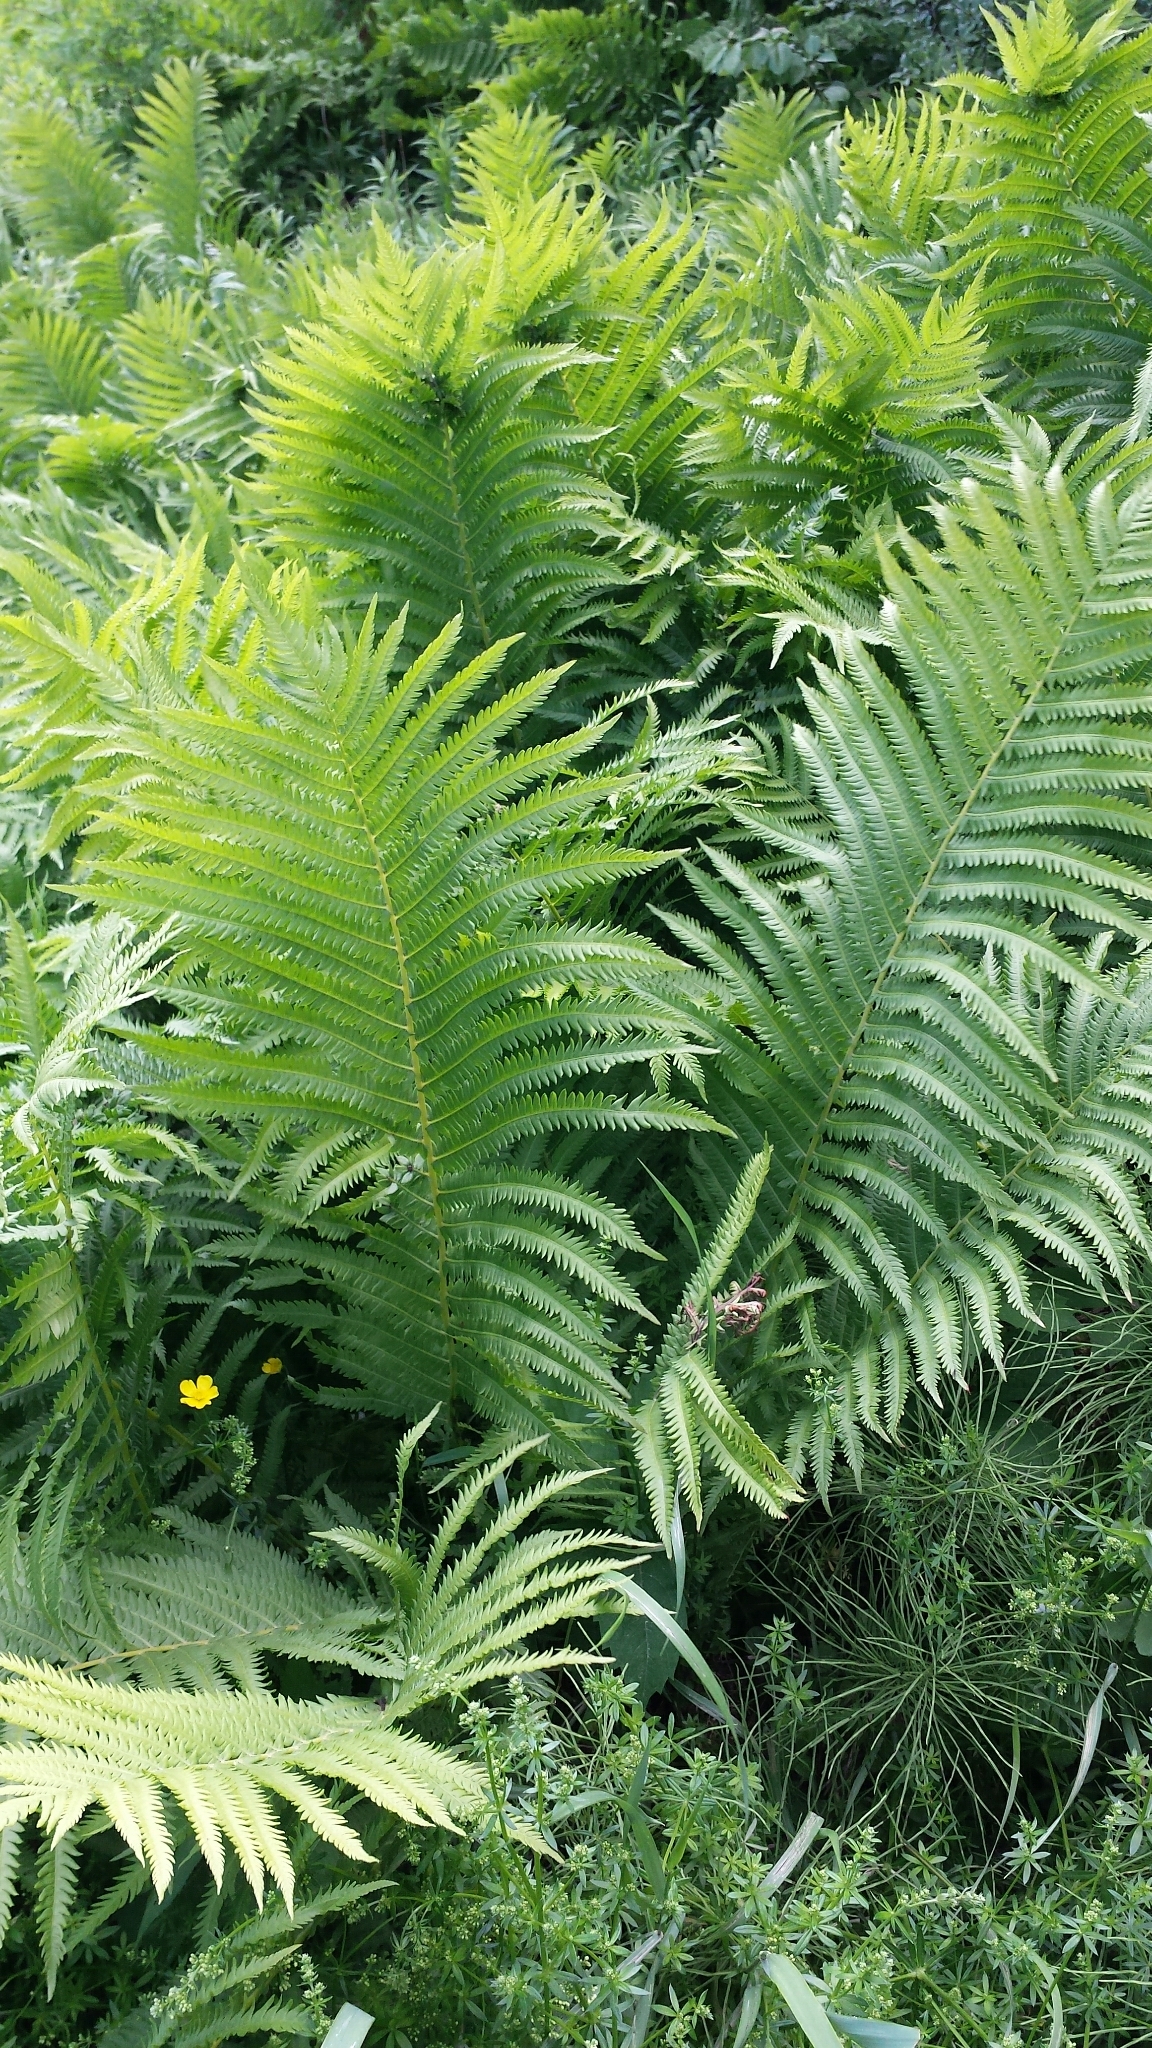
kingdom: Plantae
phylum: Tracheophyta
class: Polypodiopsida
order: Polypodiales
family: Onocleaceae
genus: Matteuccia
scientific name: Matteuccia struthiopteris
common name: Ostrich fern
